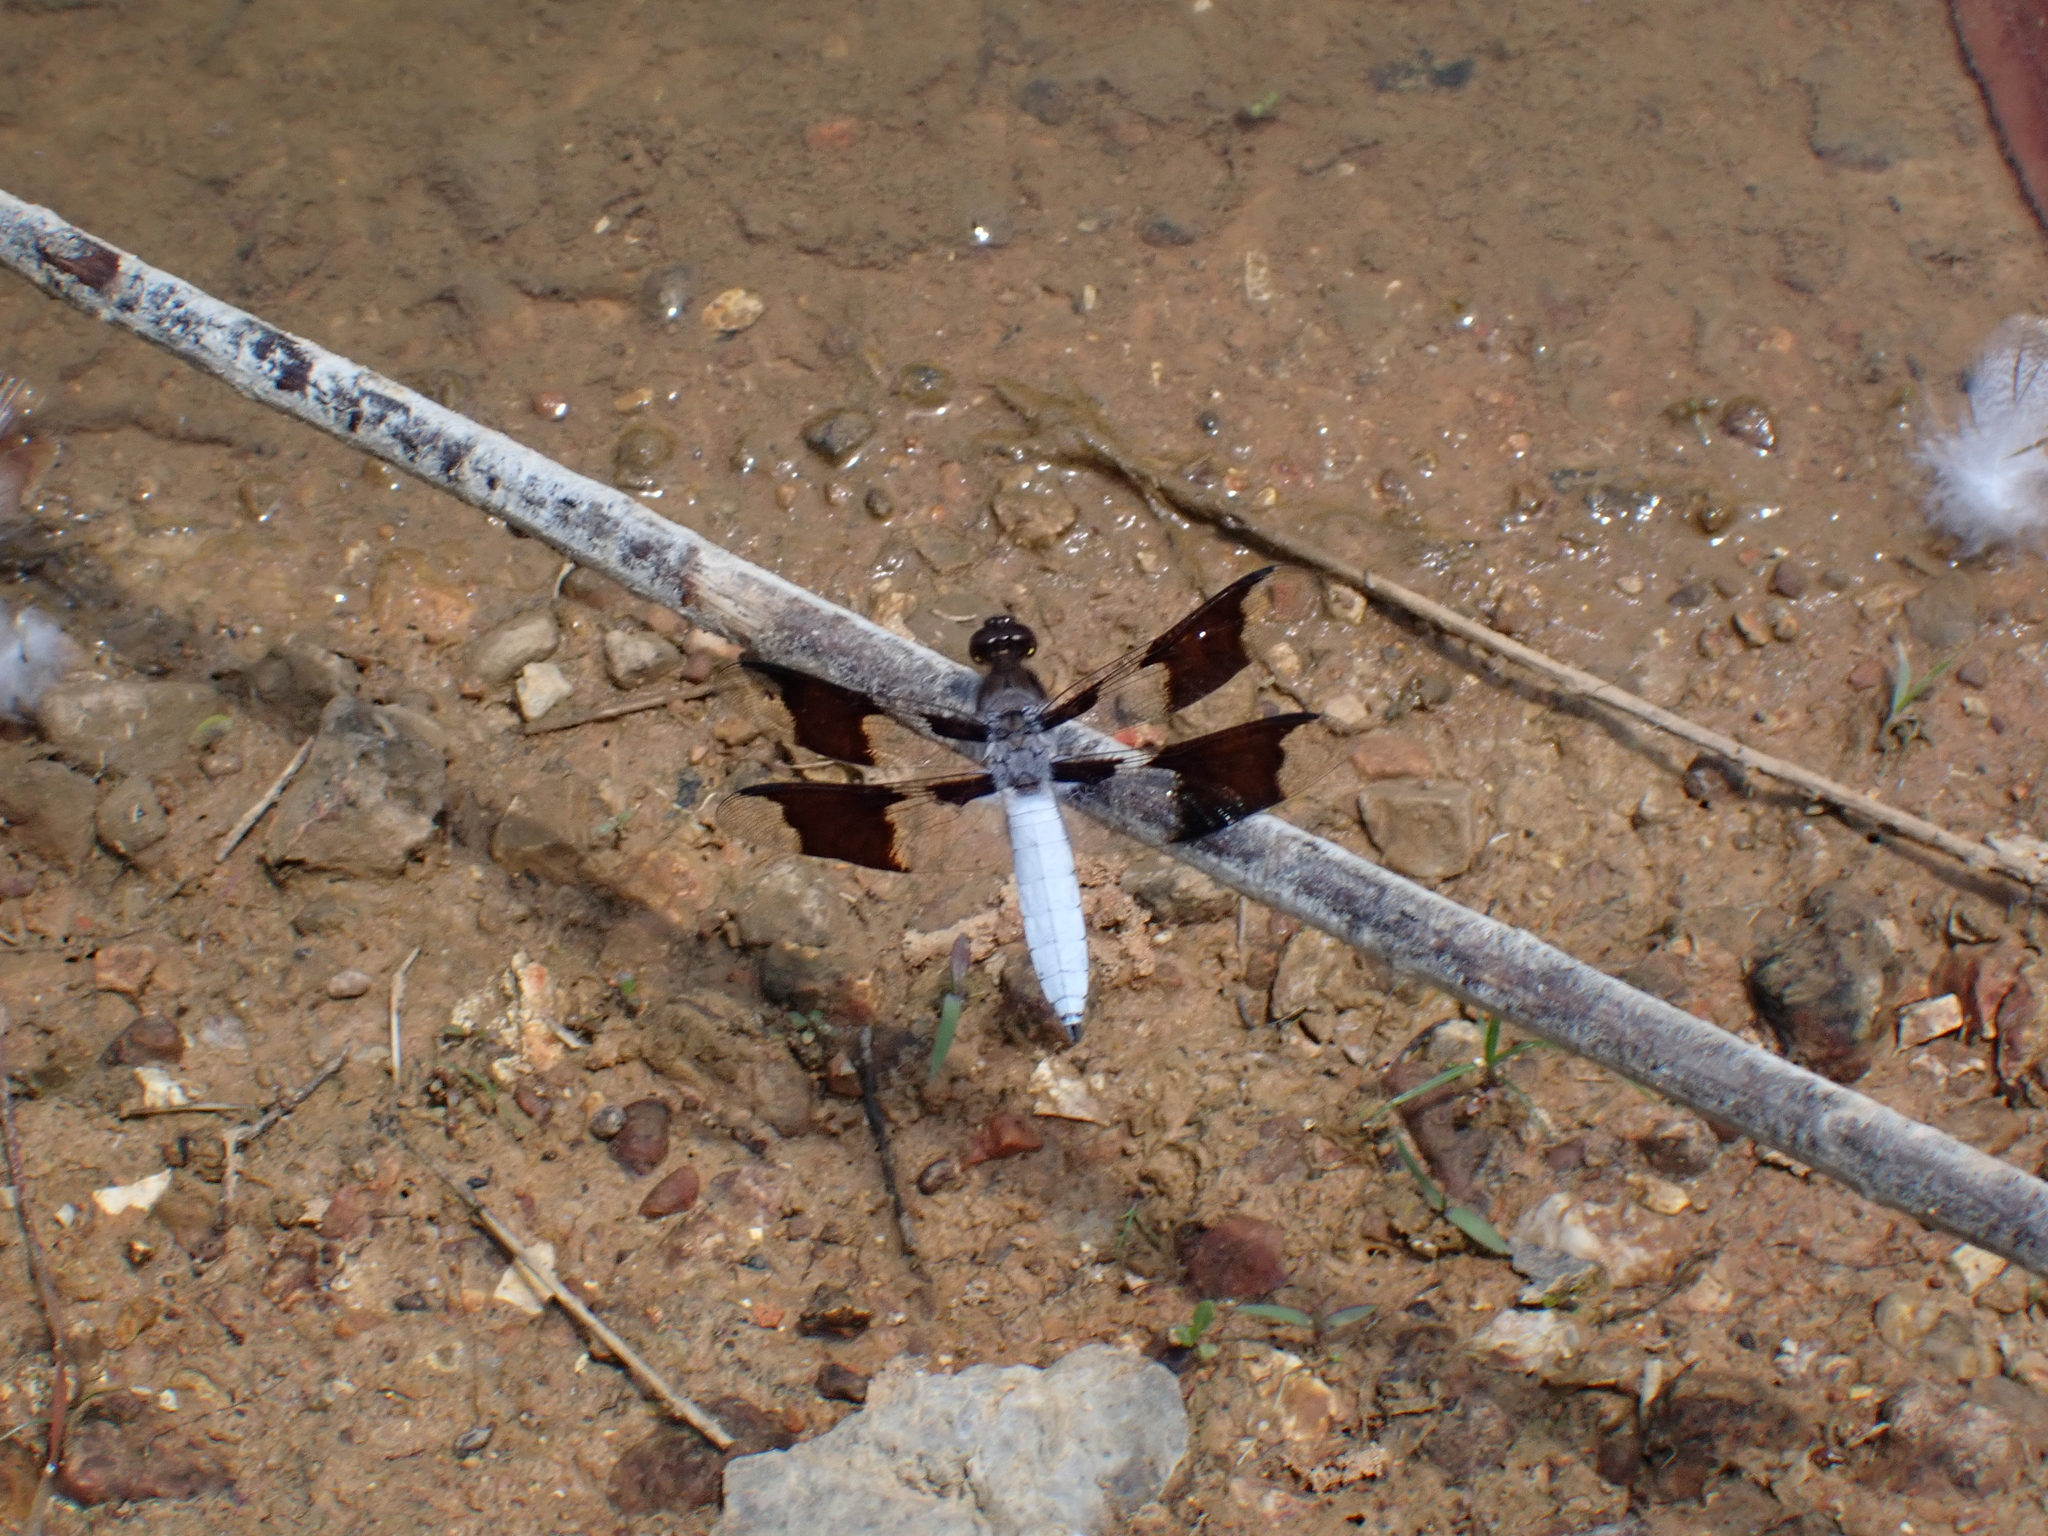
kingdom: Animalia
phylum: Arthropoda
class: Insecta
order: Odonata
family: Libellulidae
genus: Plathemis
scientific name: Plathemis lydia
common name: Common whitetail
